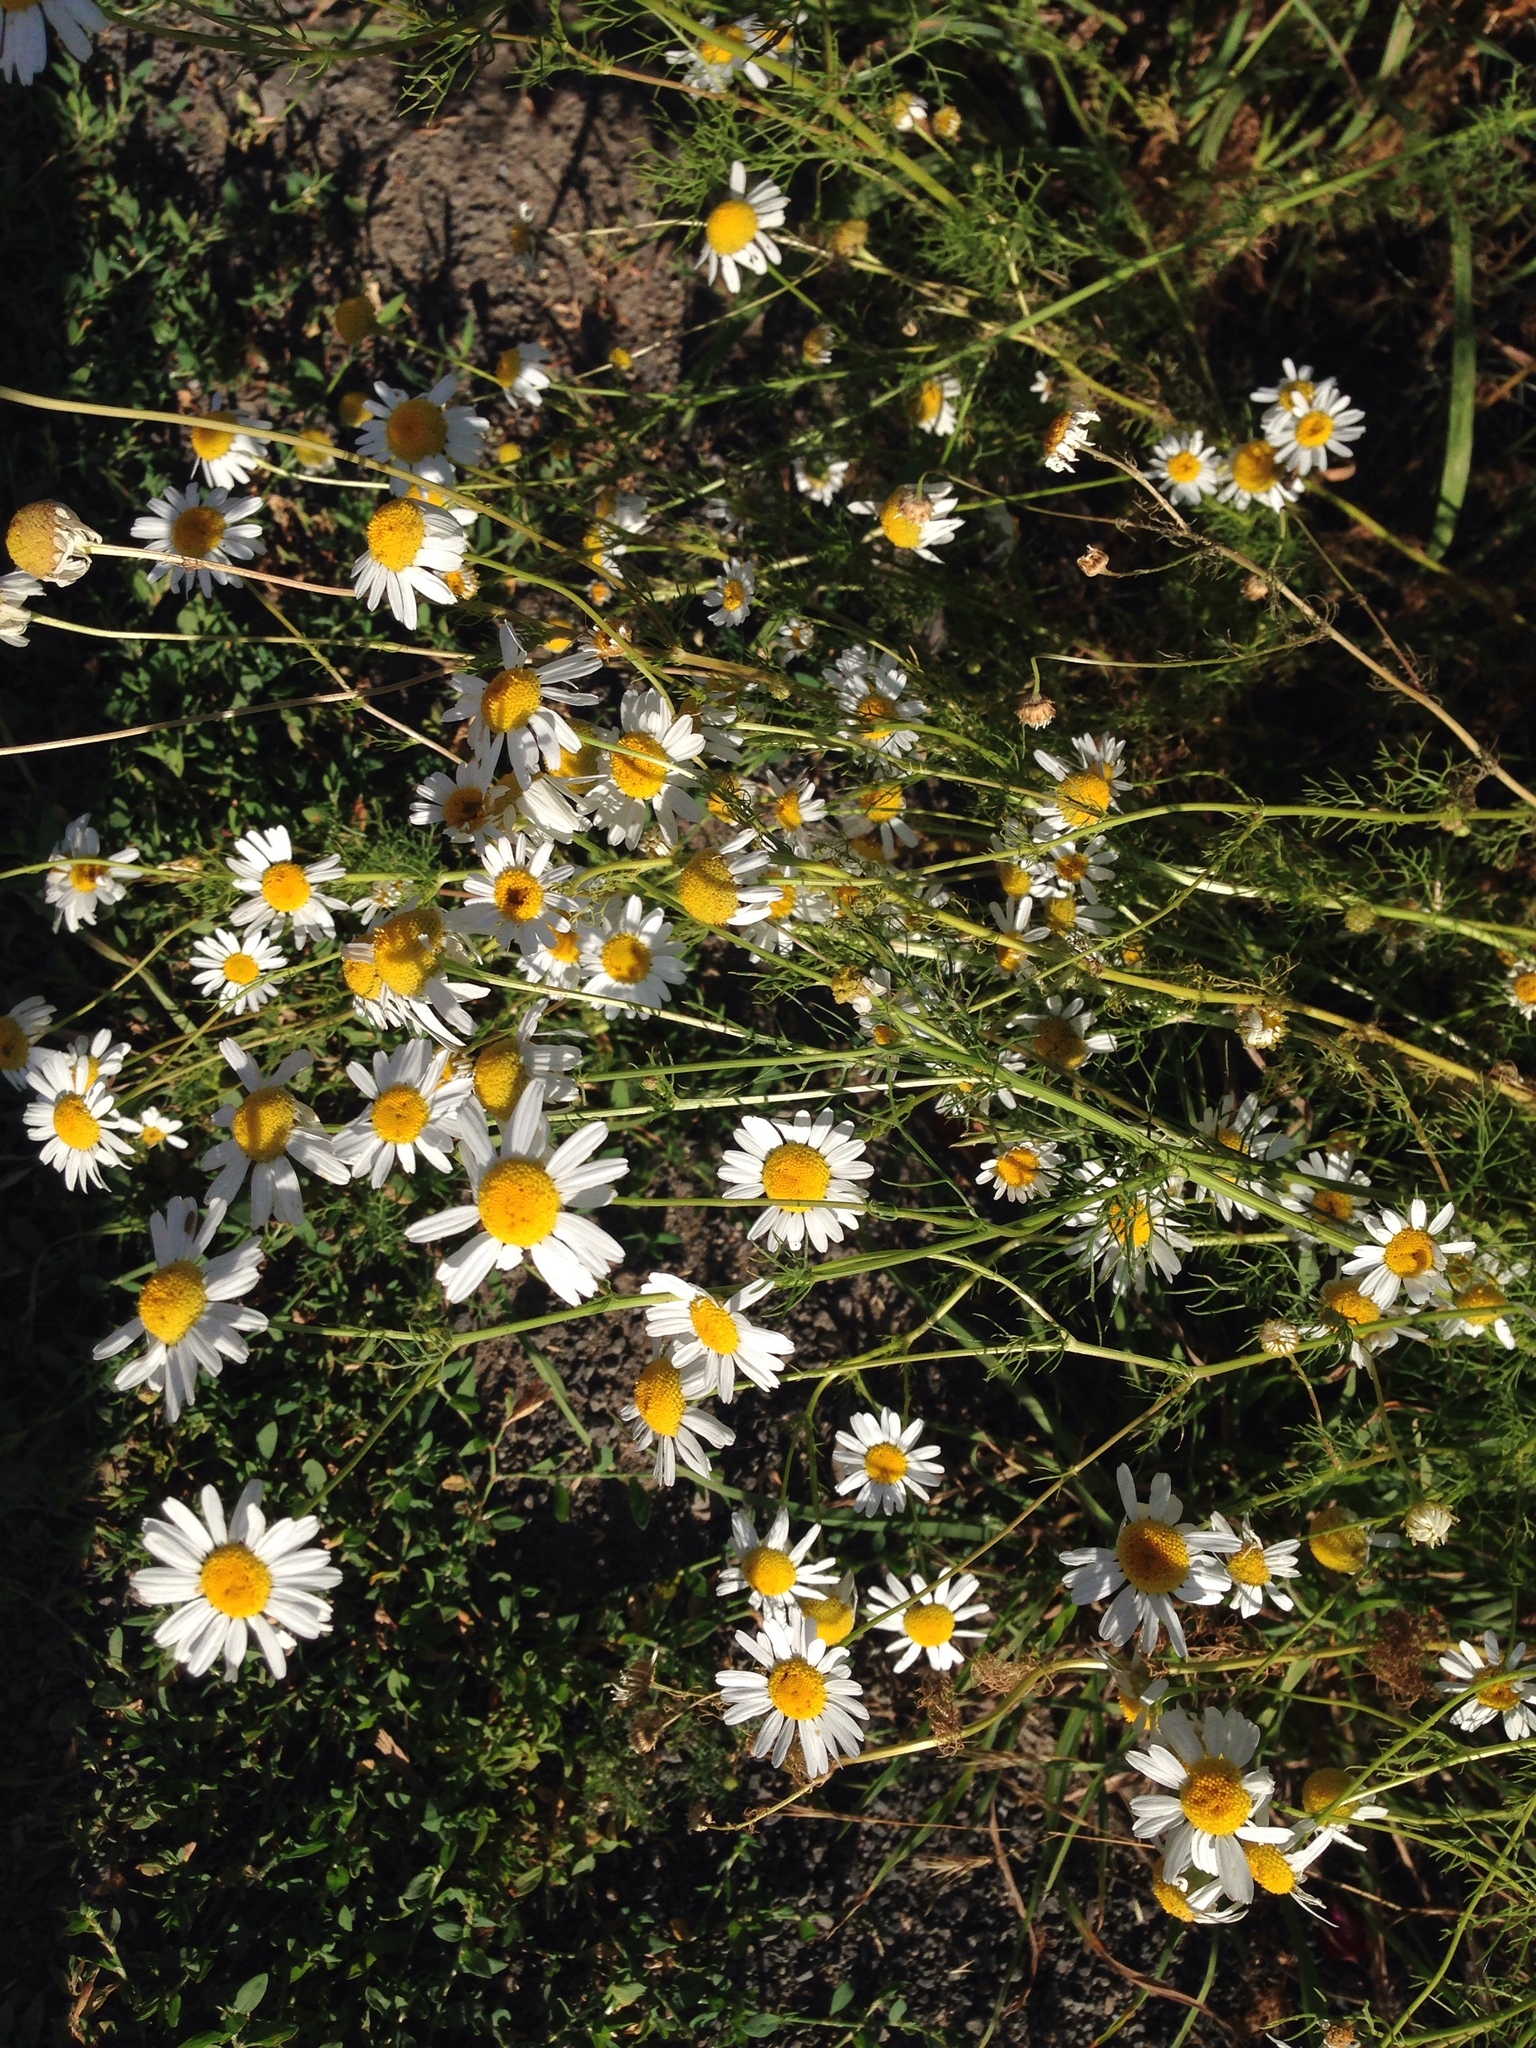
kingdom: Plantae
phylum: Tracheophyta
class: Magnoliopsida
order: Asterales
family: Asteraceae
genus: Tripleurospermum
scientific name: Tripleurospermum inodorum
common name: Scentless mayweed
